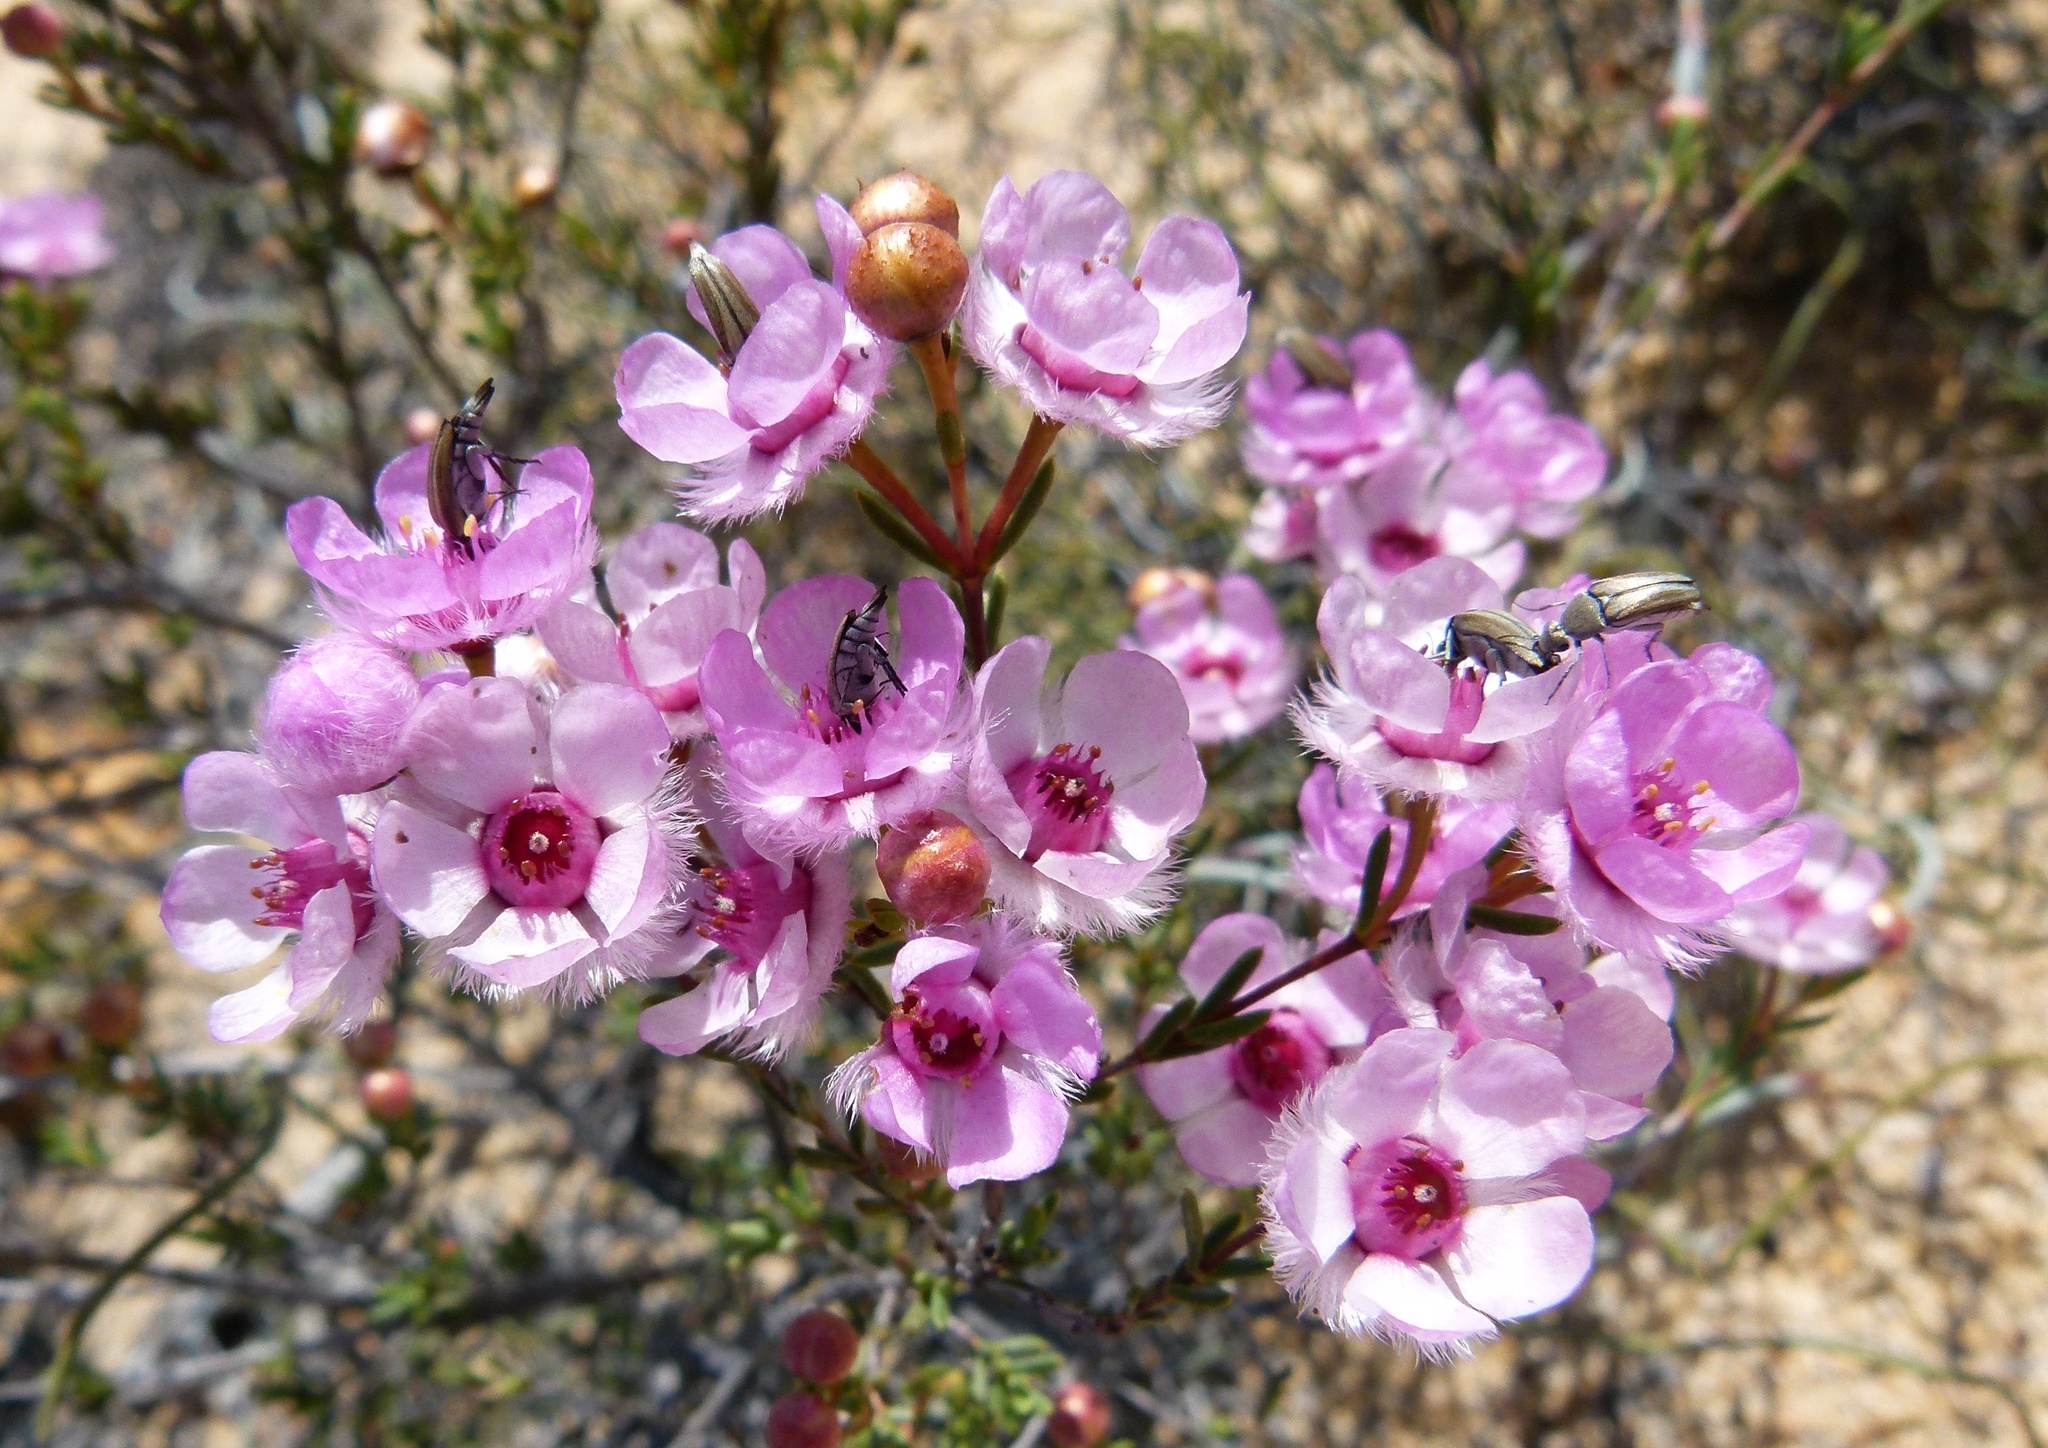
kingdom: Plantae
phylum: Tracheophyta
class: Magnoliopsida
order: Myrtales
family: Myrtaceae
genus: Verticordia
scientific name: Verticordia picta
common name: Painted feather-flower
